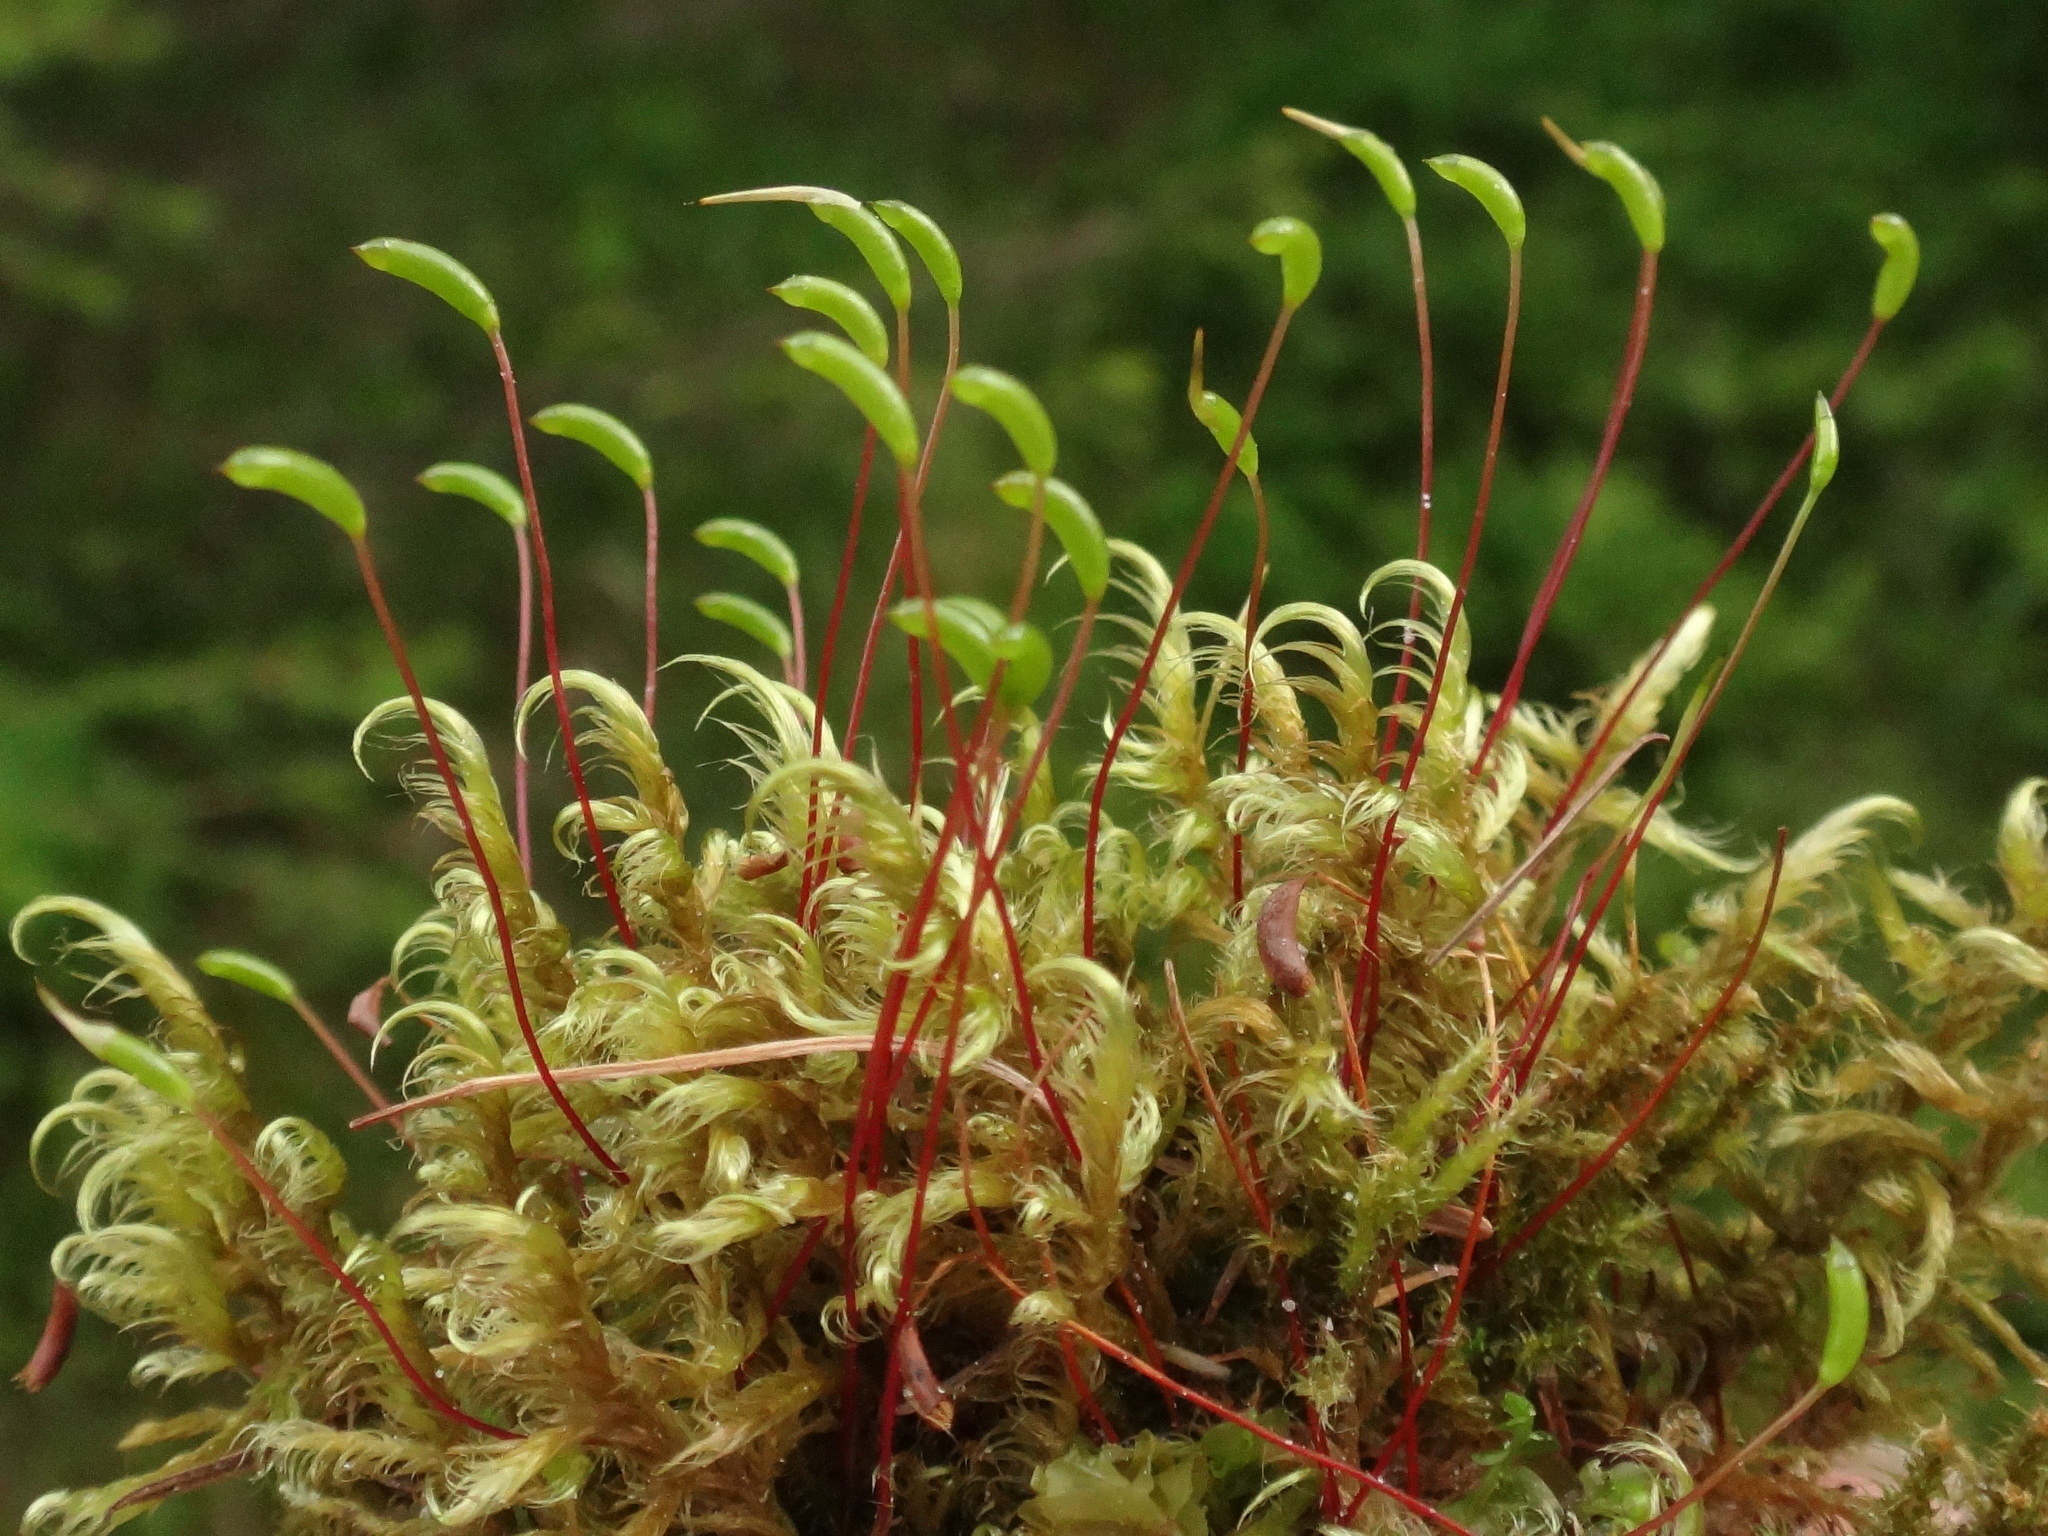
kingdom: Plantae
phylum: Bryophyta
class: Bryopsida
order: Hypnales
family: Scorpidiaceae
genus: Sanionia
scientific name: Sanionia uncinata
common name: Sickle moss
